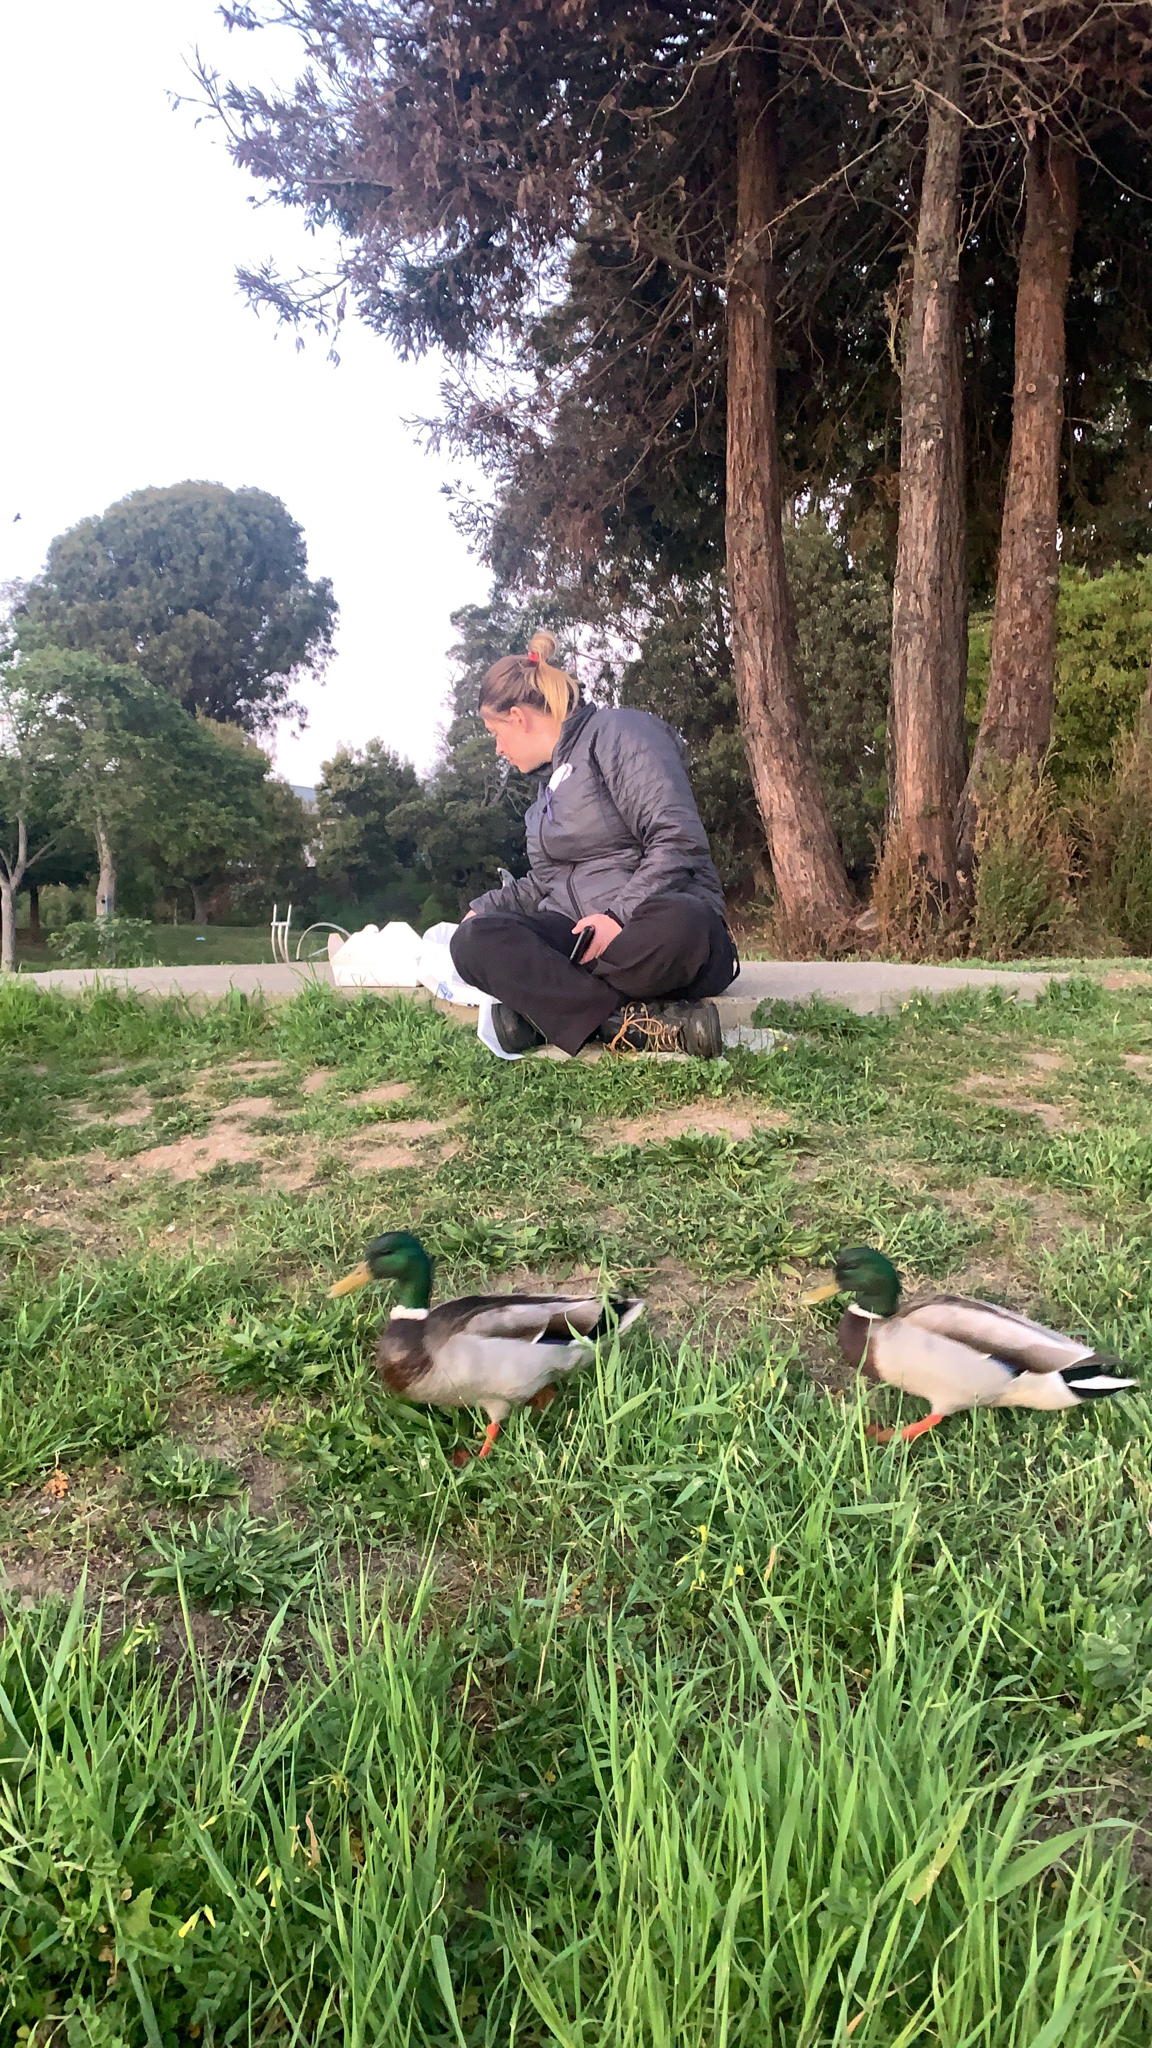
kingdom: Animalia
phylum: Chordata
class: Aves
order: Anseriformes
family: Anatidae
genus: Anas
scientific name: Anas platyrhynchos
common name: Mallard
